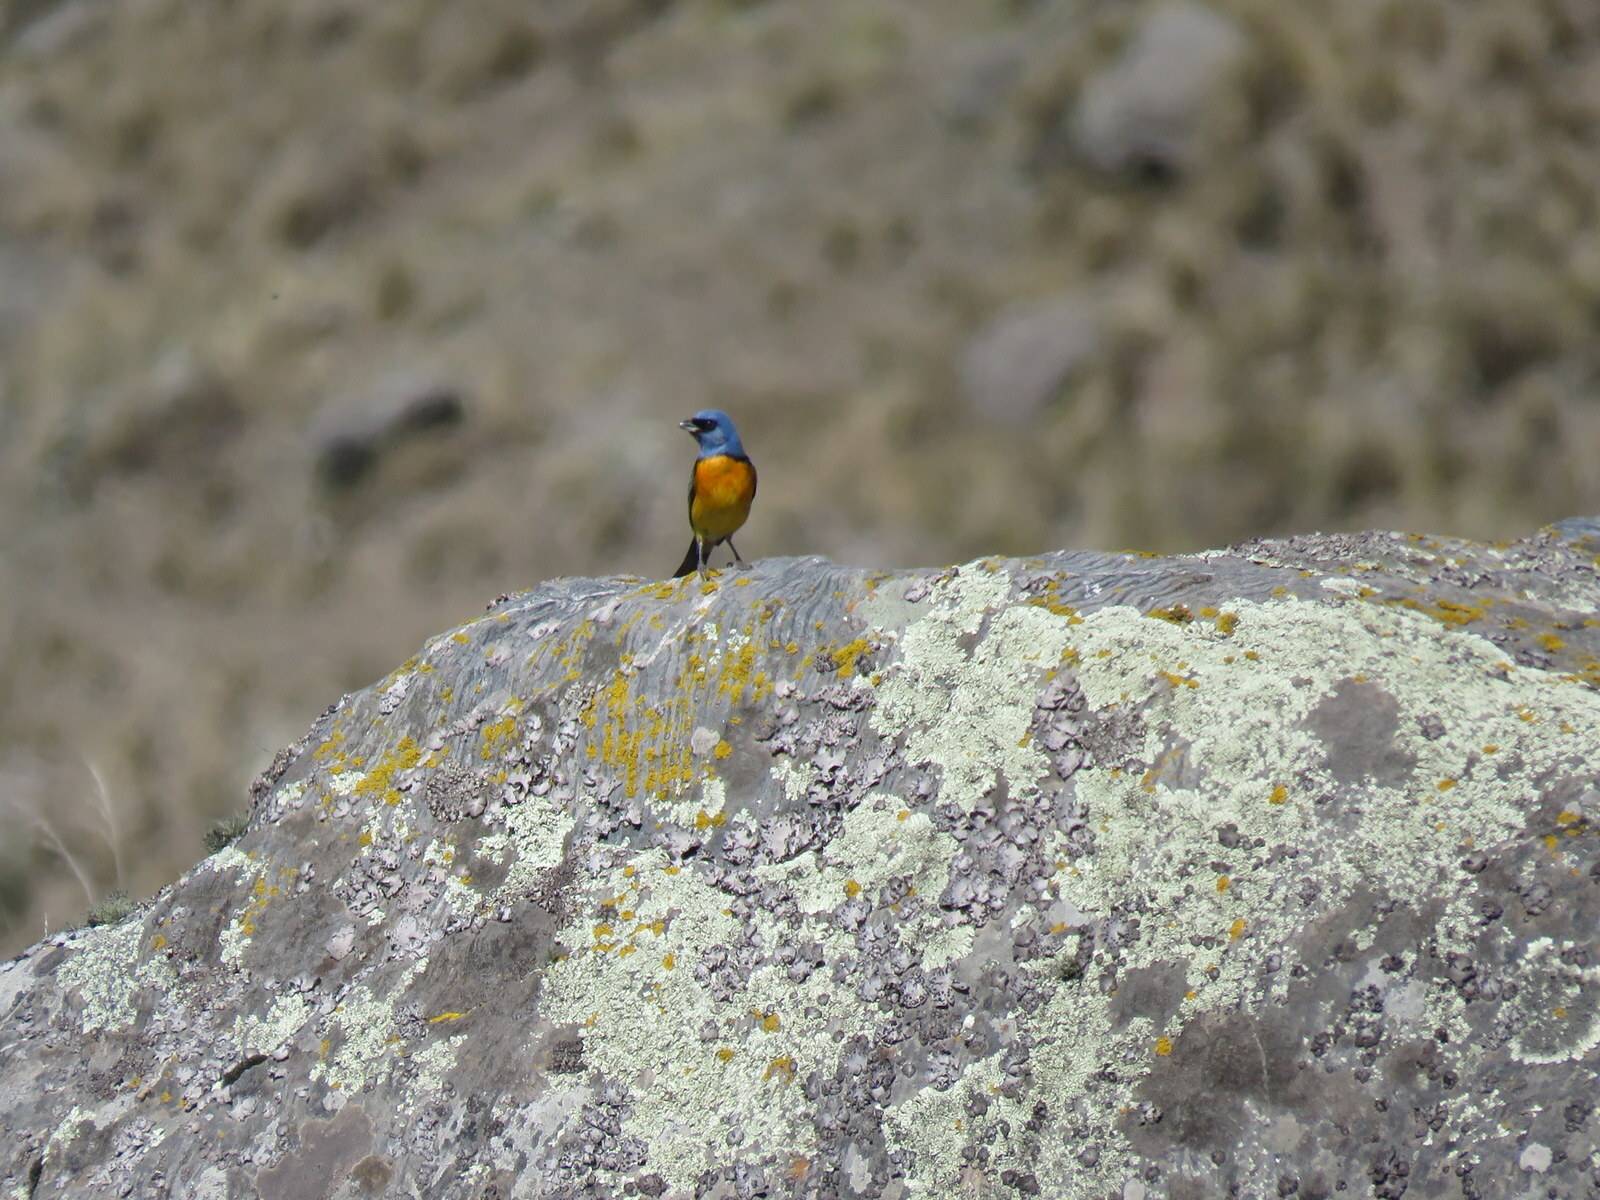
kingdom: Animalia
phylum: Chordata
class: Aves
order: Passeriformes
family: Thraupidae
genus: Rauenia
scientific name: Rauenia bonariensis
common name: Blue-and-yellow tanager
